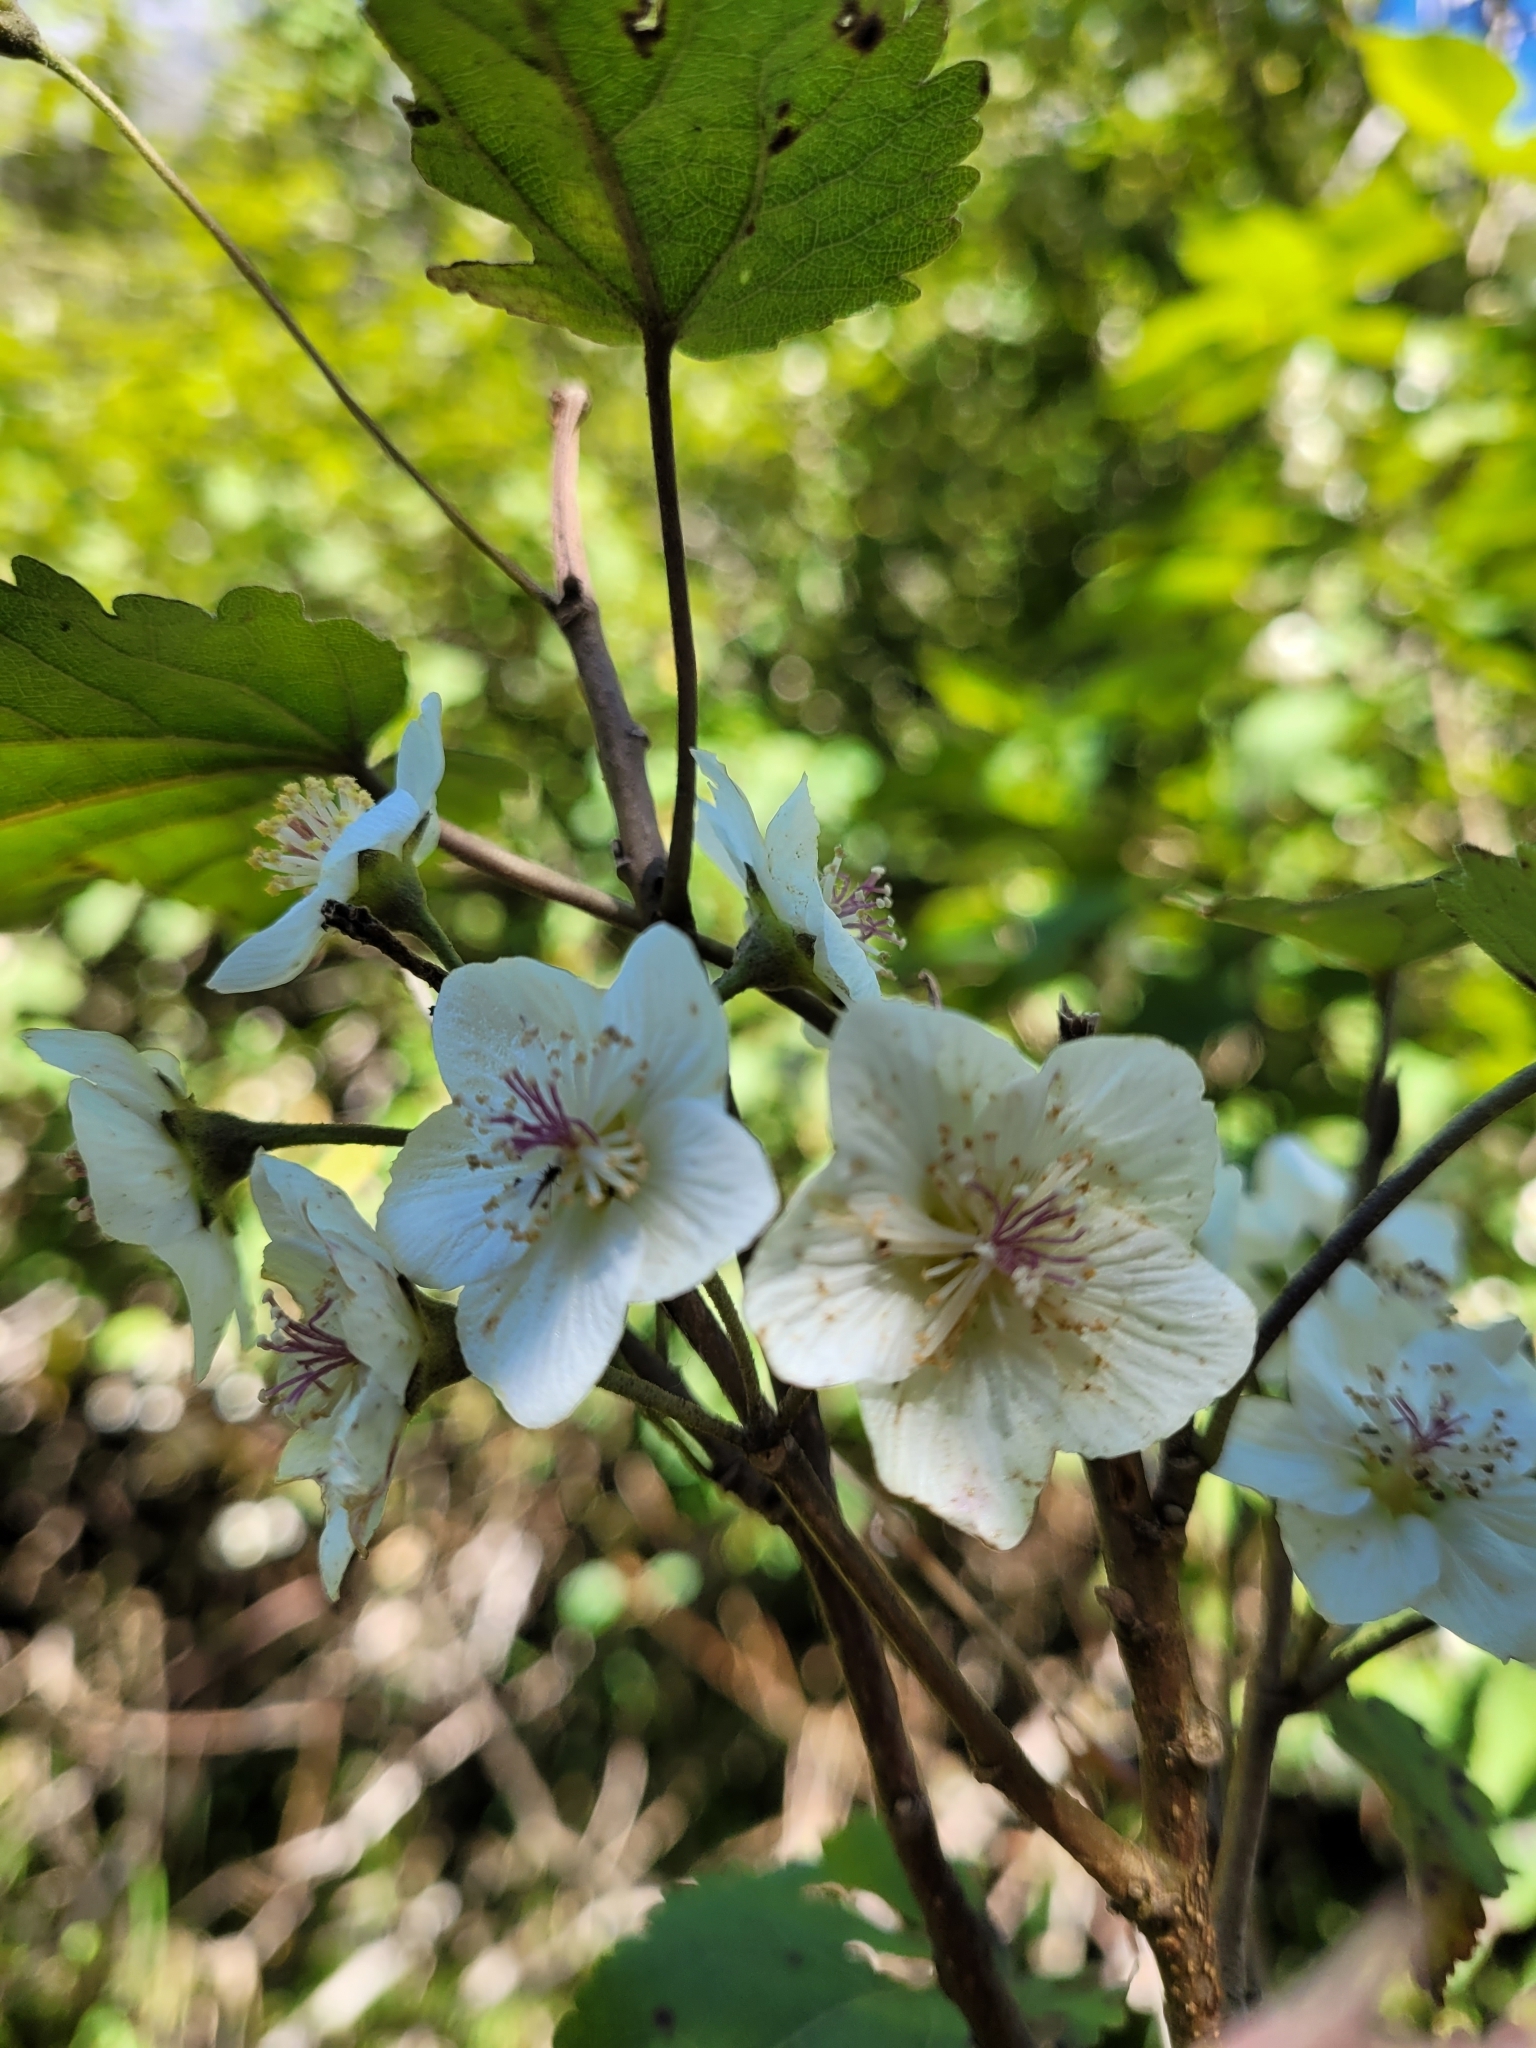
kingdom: Plantae
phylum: Tracheophyta
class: Magnoliopsida
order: Malvales
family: Malvaceae
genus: Hoheria
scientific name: Hoheria glabrata
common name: Mountain-ribbon
